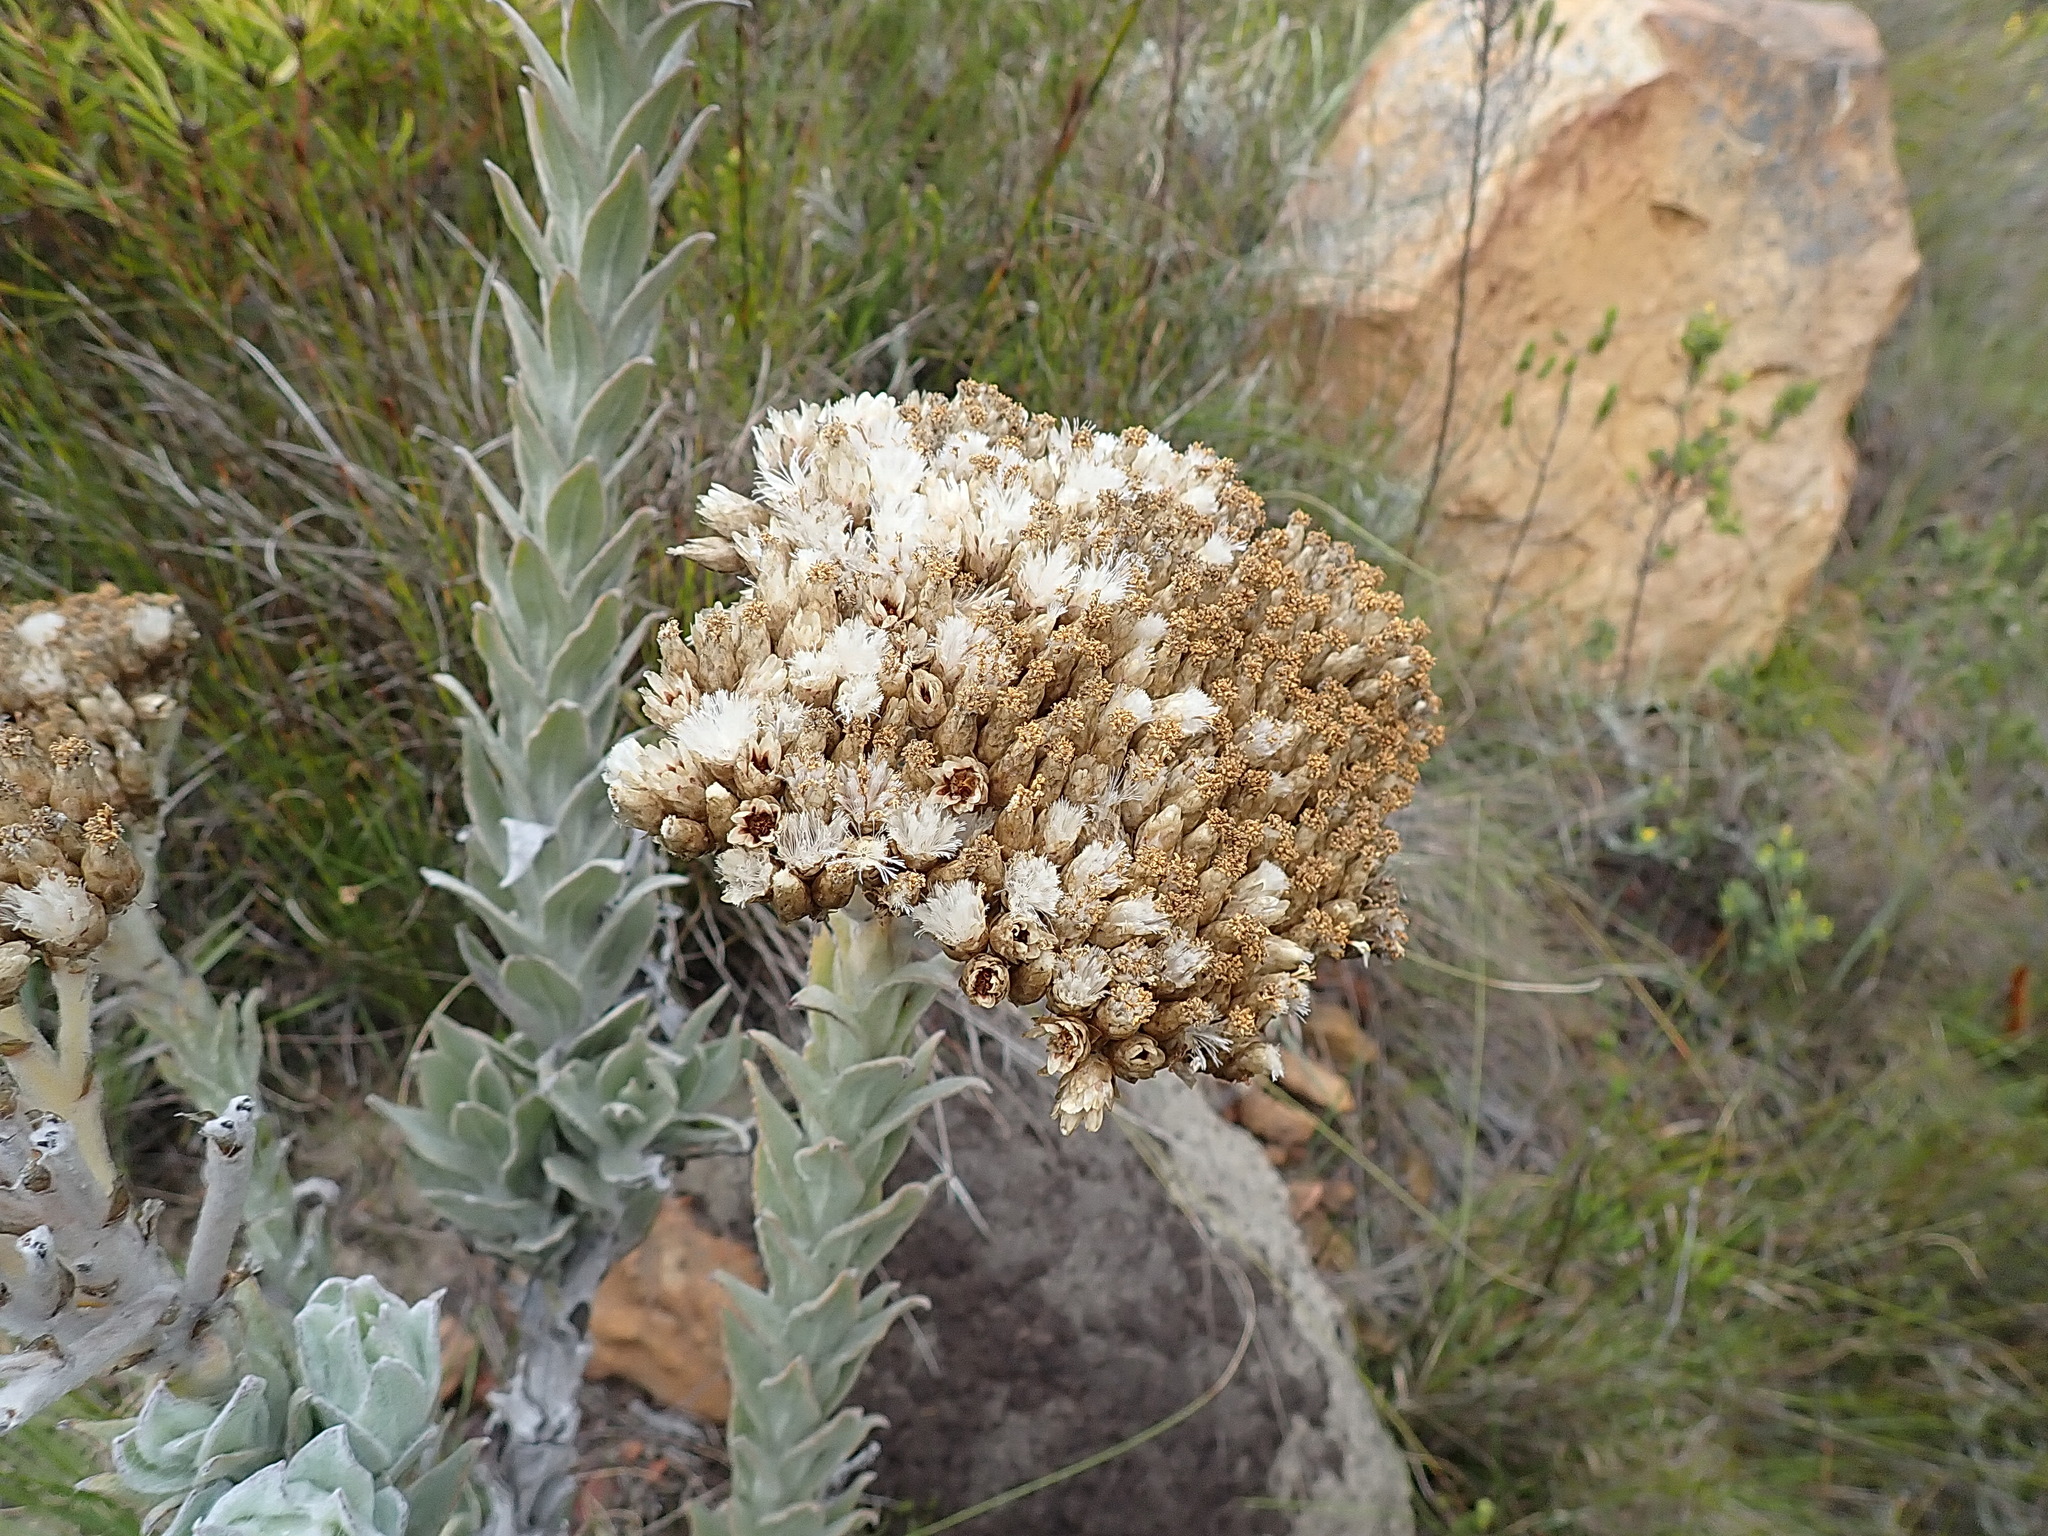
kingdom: Plantae
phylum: Tracheophyta
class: Magnoliopsida
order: Asterales
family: Asteraceae
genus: Syncarpha
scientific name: Syncarpha milleflora
